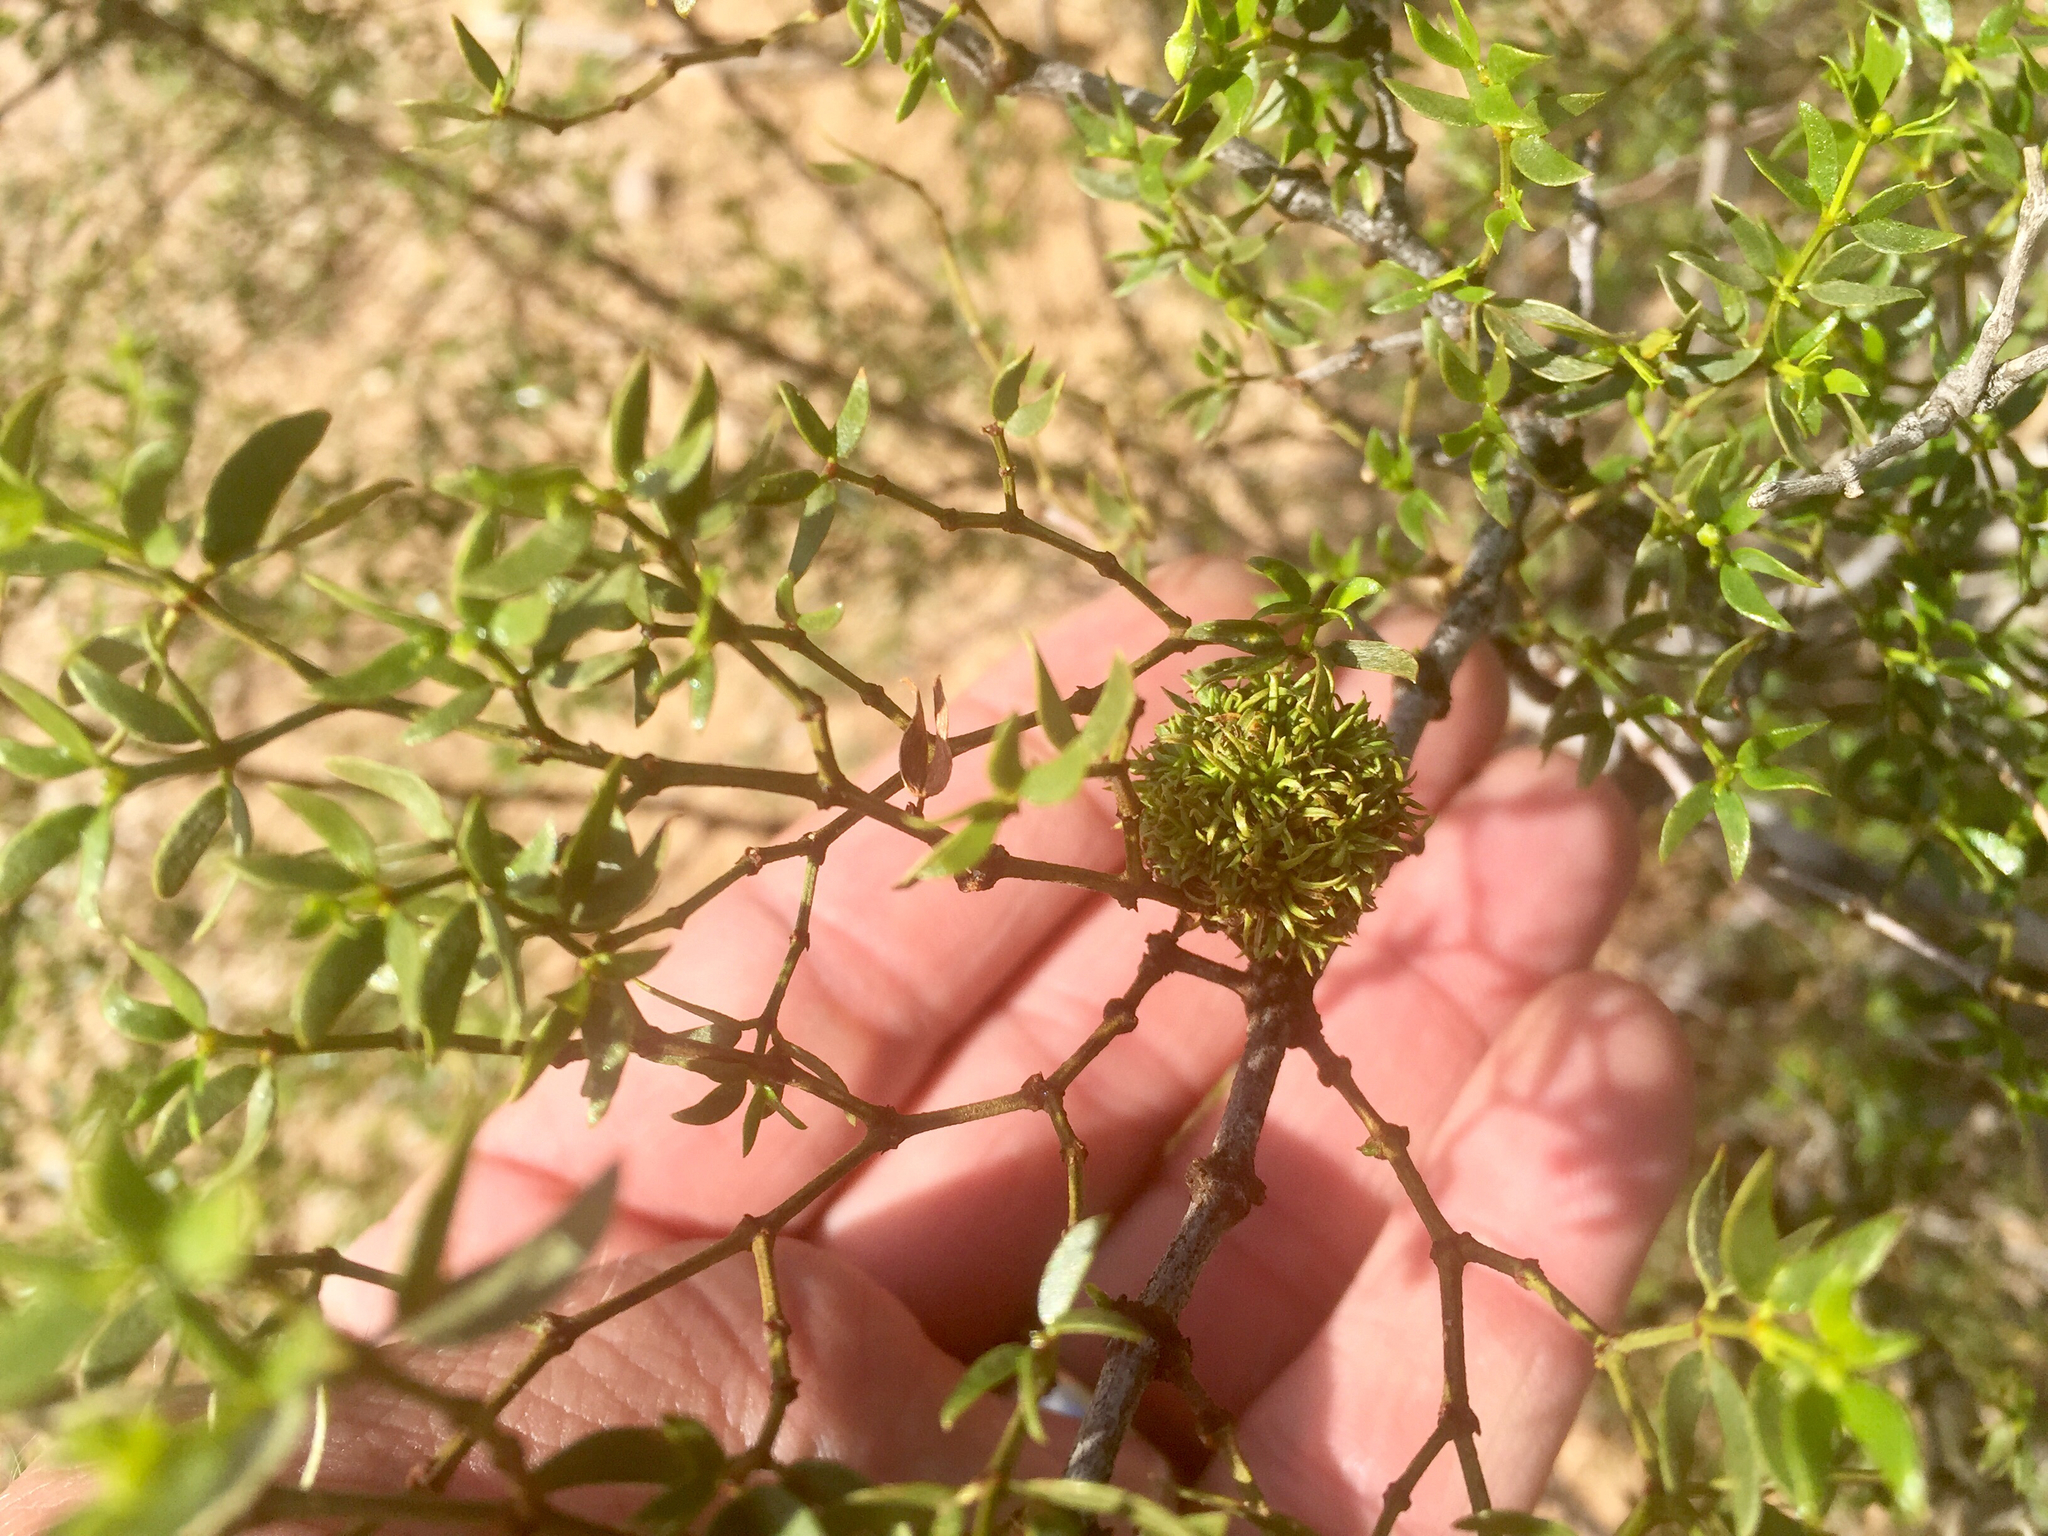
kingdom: Animalia
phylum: Arthropoda
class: Insecta
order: Diptera
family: Cecidomyiidae
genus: Asphondylia
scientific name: Asphondylia auripila
